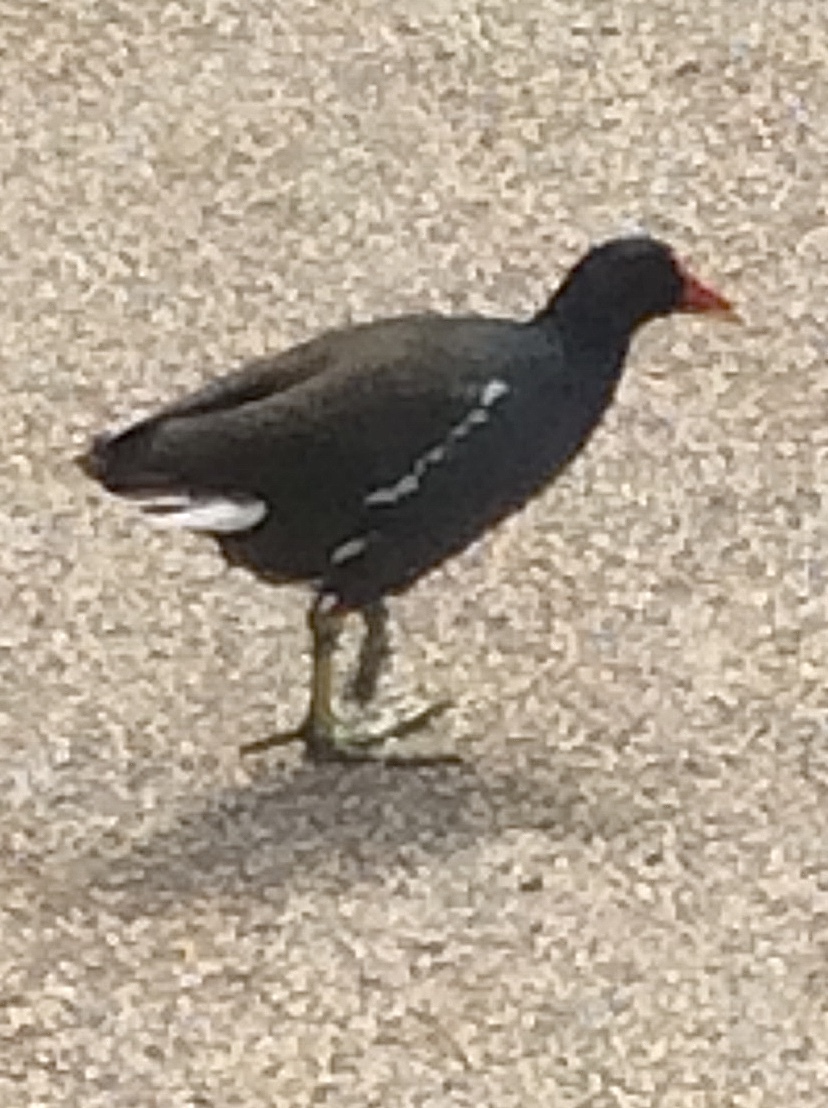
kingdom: Animalia
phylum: Chordata
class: Aves
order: Gruiformes
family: Rallidae
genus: Gallinula
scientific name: Gallinula chloropus
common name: Common moorhen
